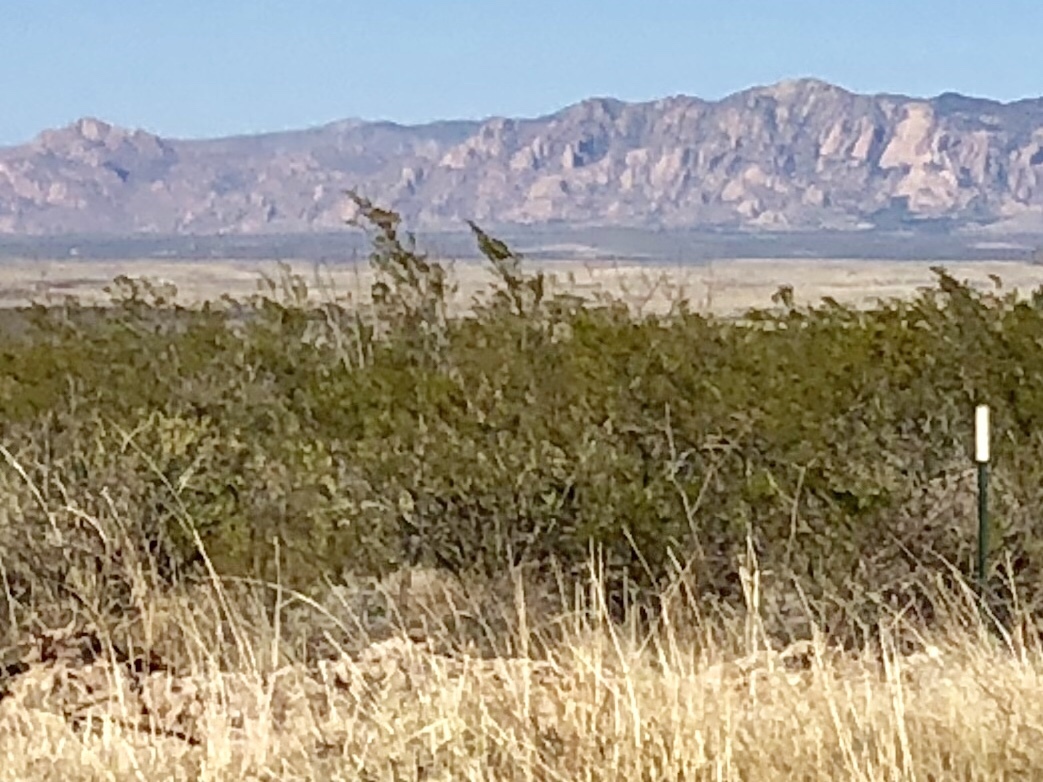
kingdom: Plantae
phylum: Tracheophyta
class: Magnoliopsida
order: Zygophyllales
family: Zygophyllaceae
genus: Larrea
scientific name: Larrea tridentata
